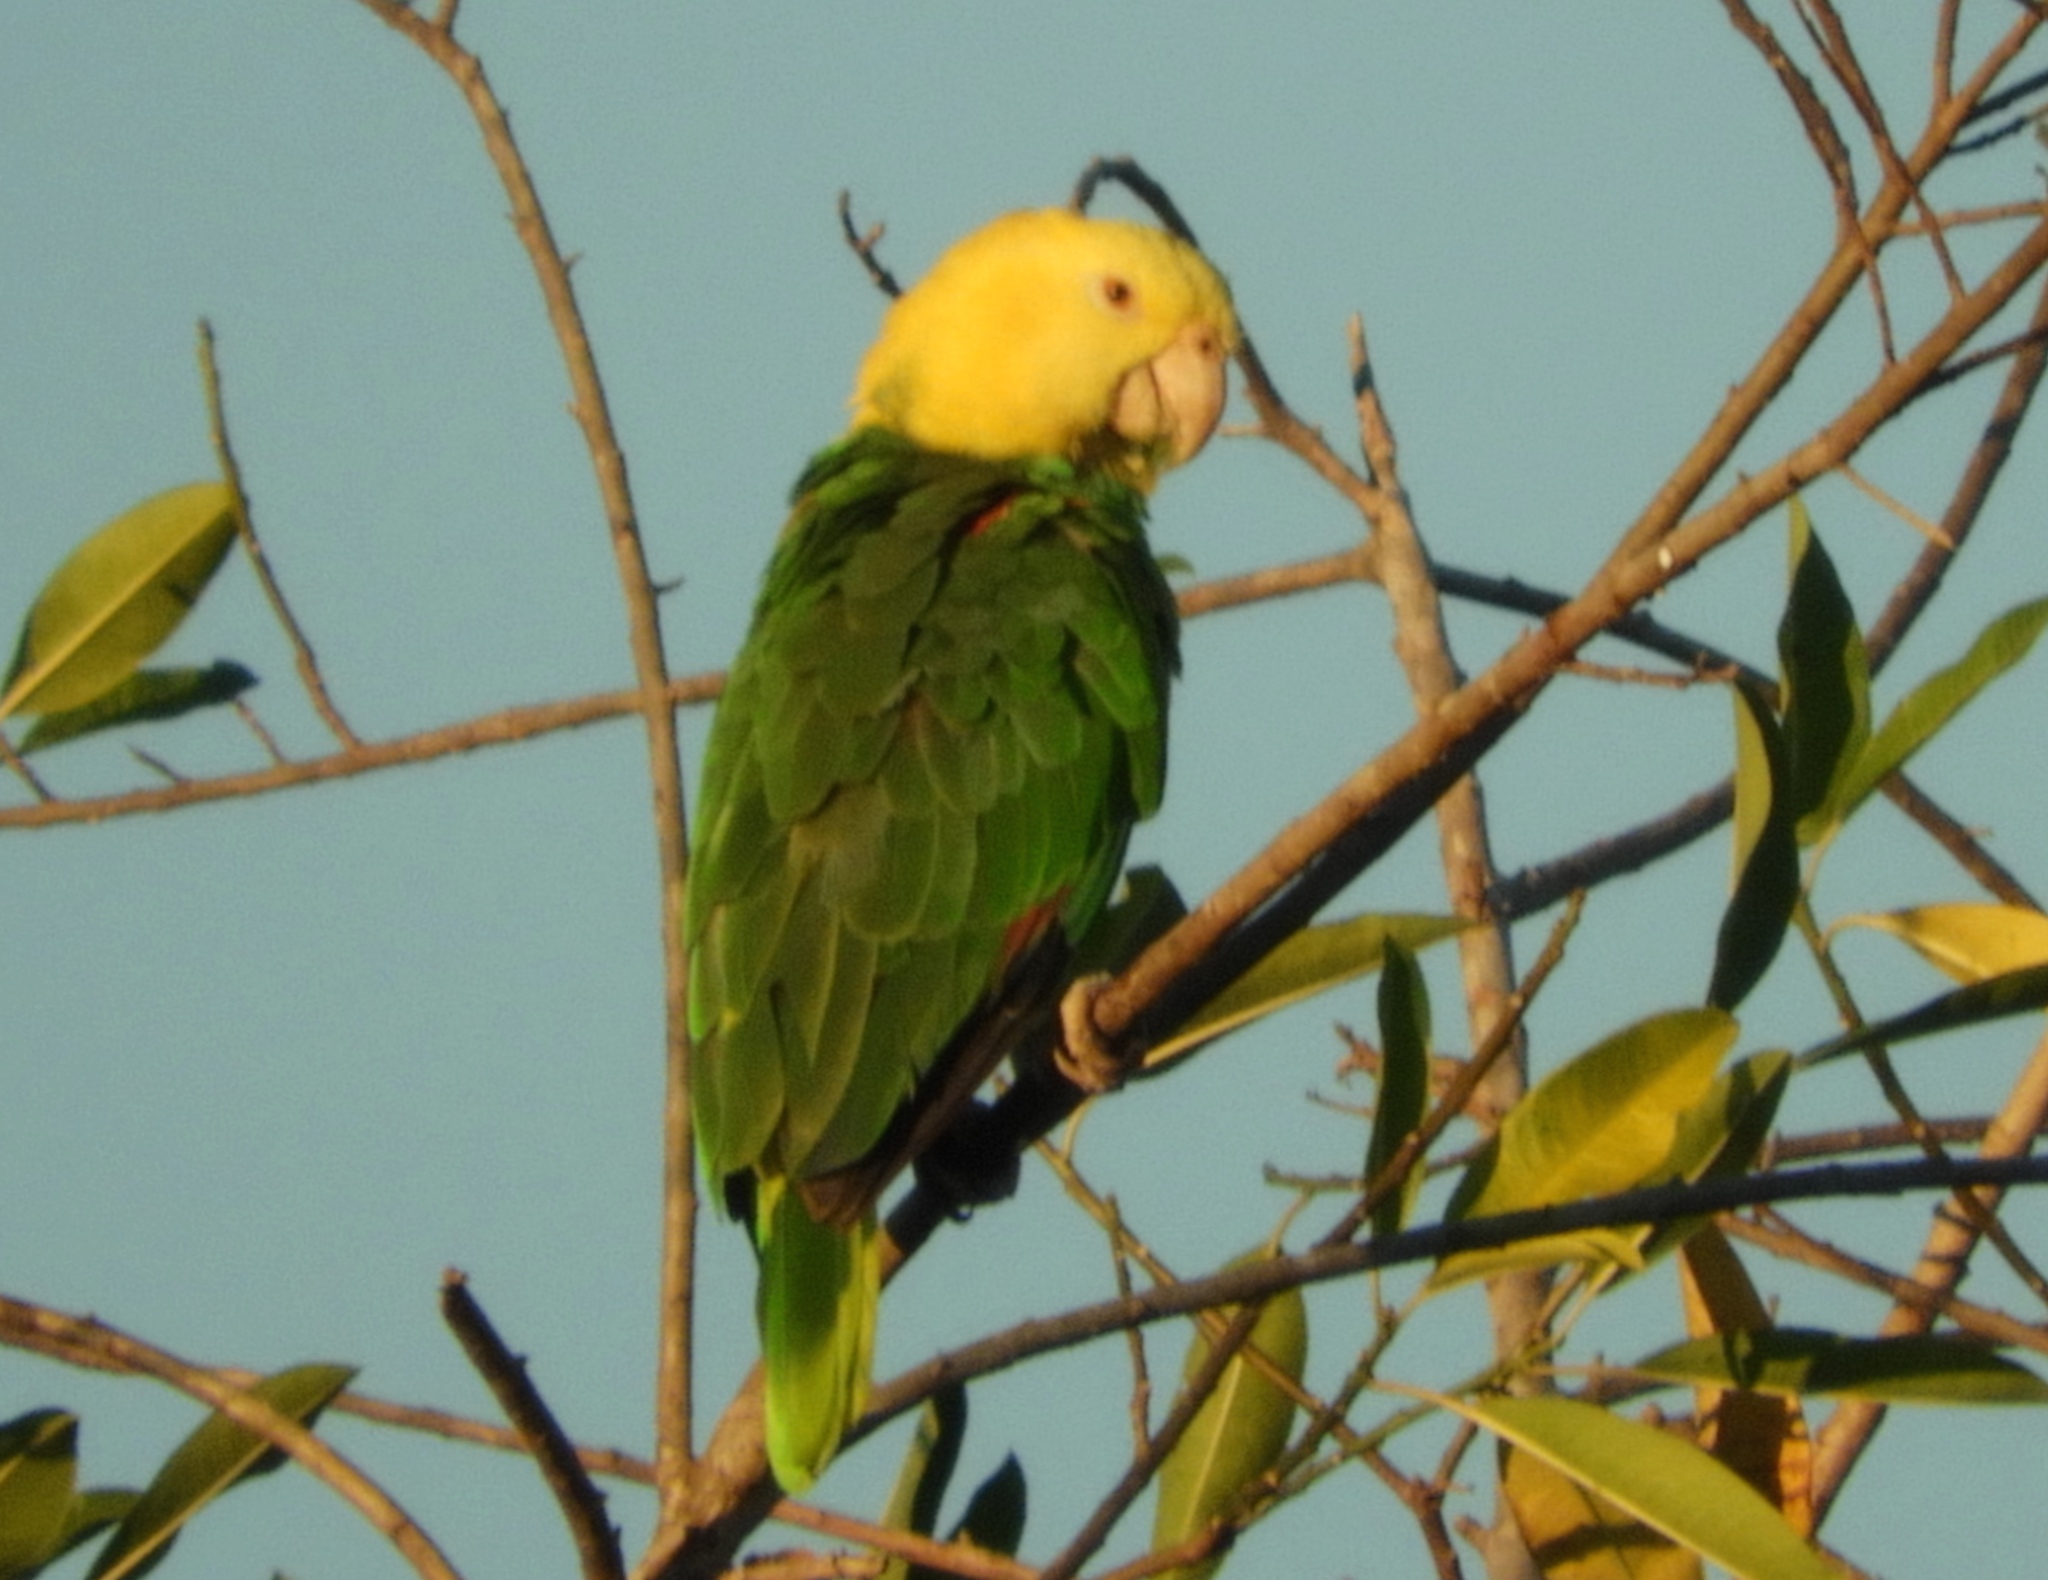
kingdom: Animalia
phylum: Chordata
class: Aves
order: Psittaciformes
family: Psittacidae
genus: Amazona
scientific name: Amazona oratrix
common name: Yellow-headed amazon
